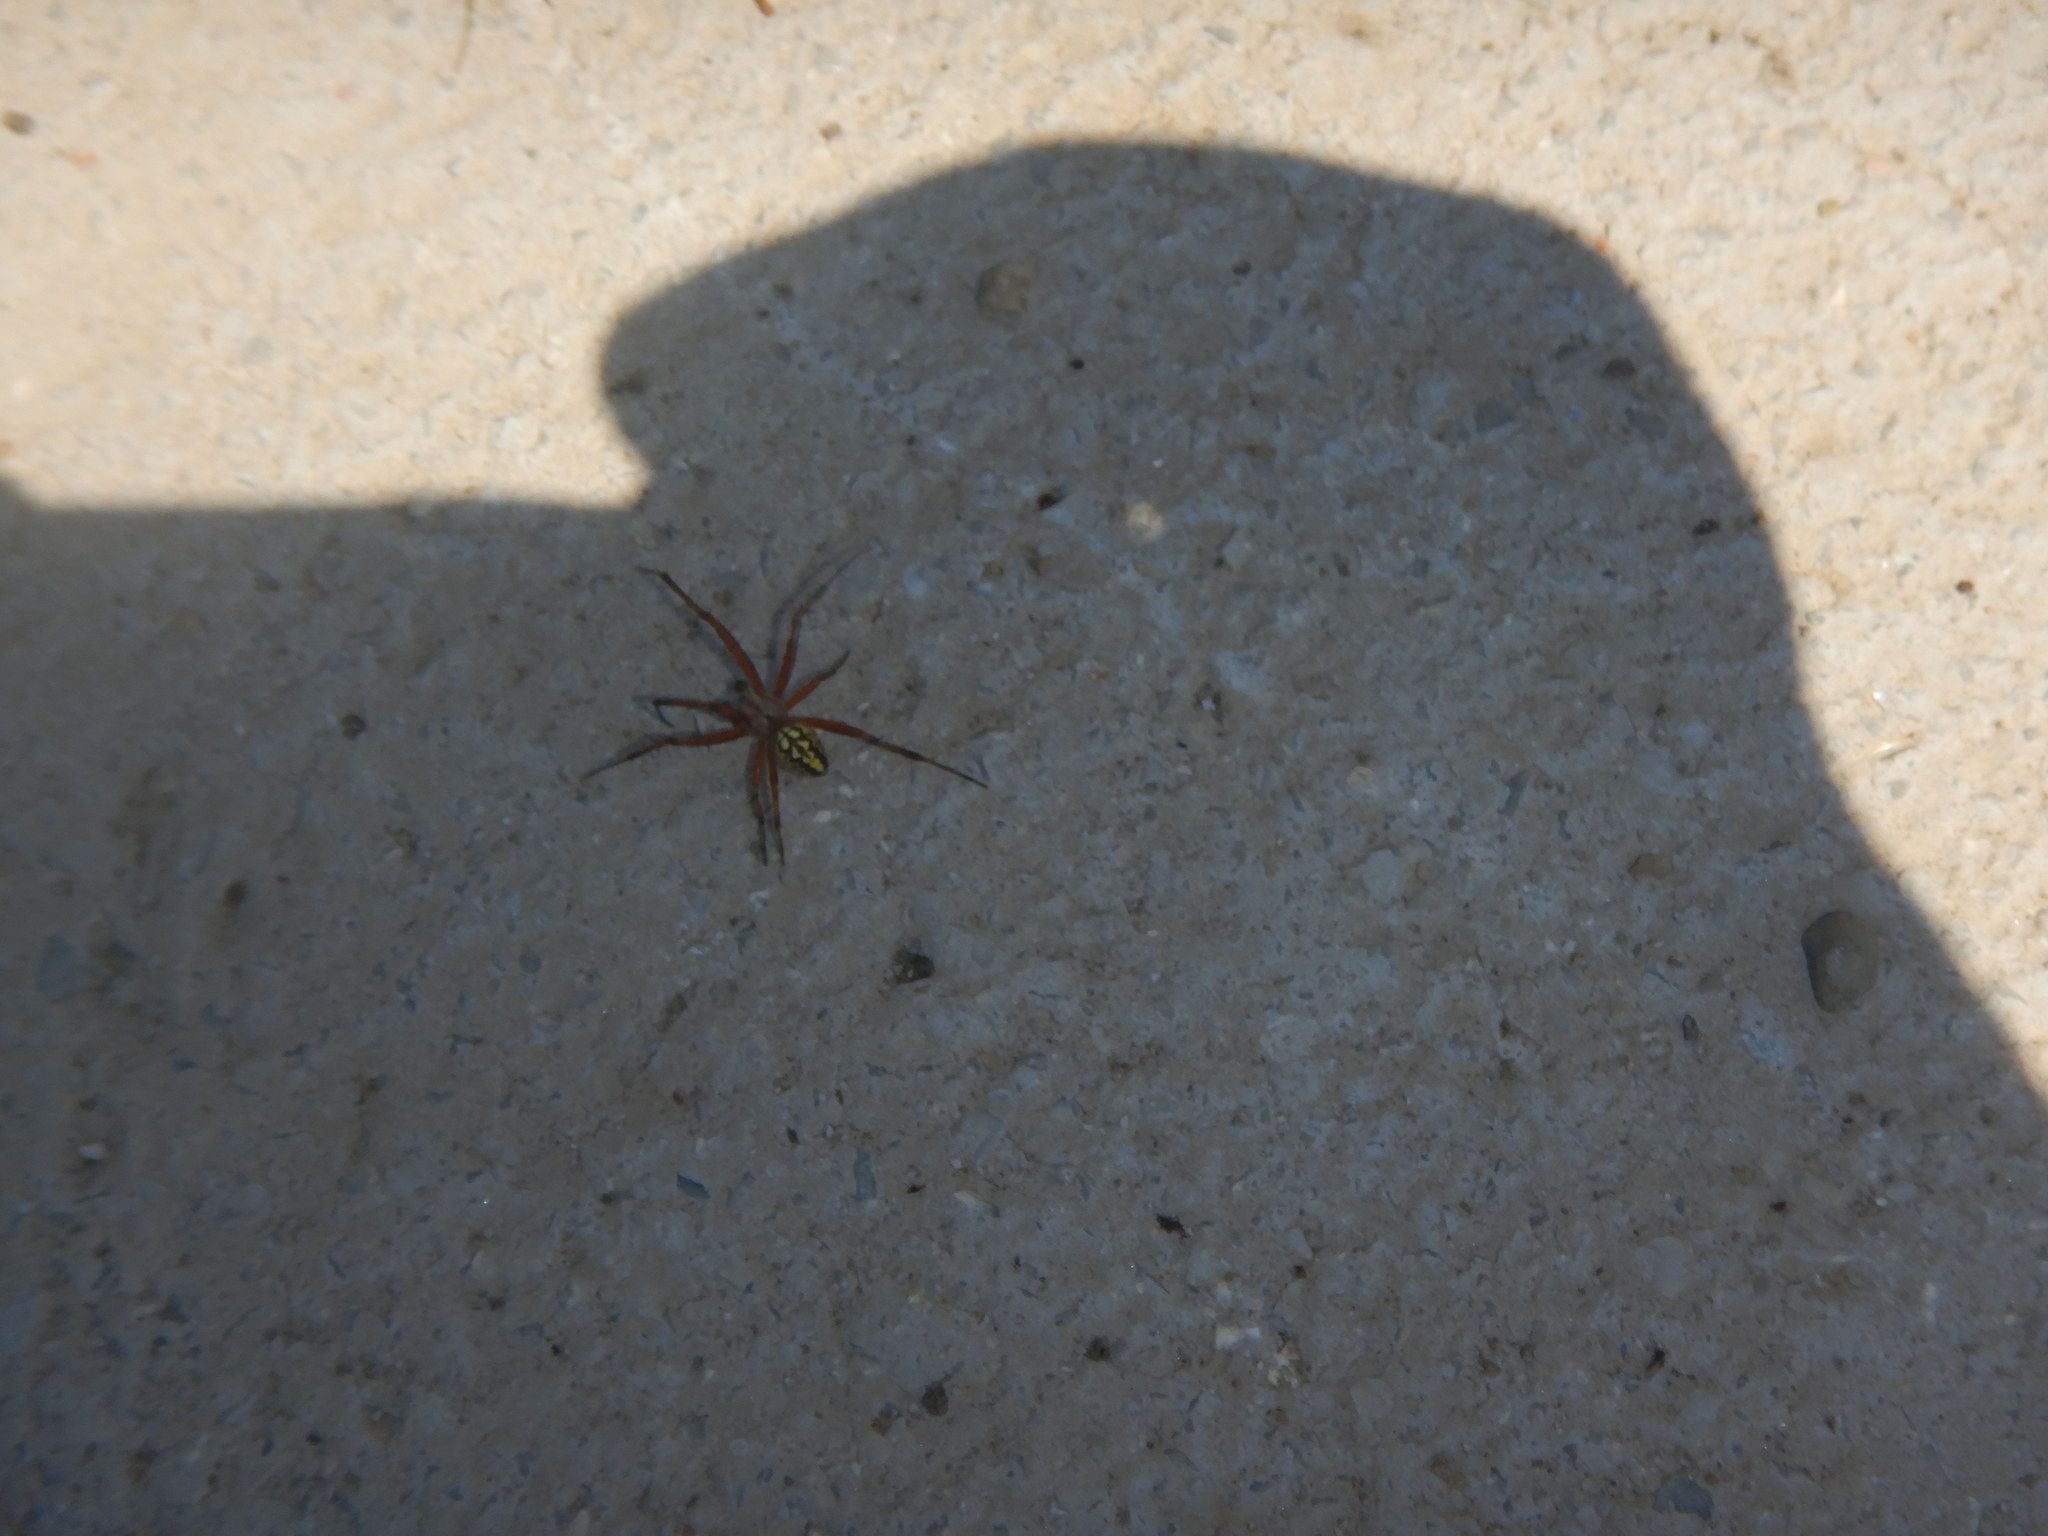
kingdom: Animalia
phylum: Arthropoda
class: Arachnida
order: Araneae
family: Araneidae
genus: Neoscona
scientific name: Neoscona adianta
